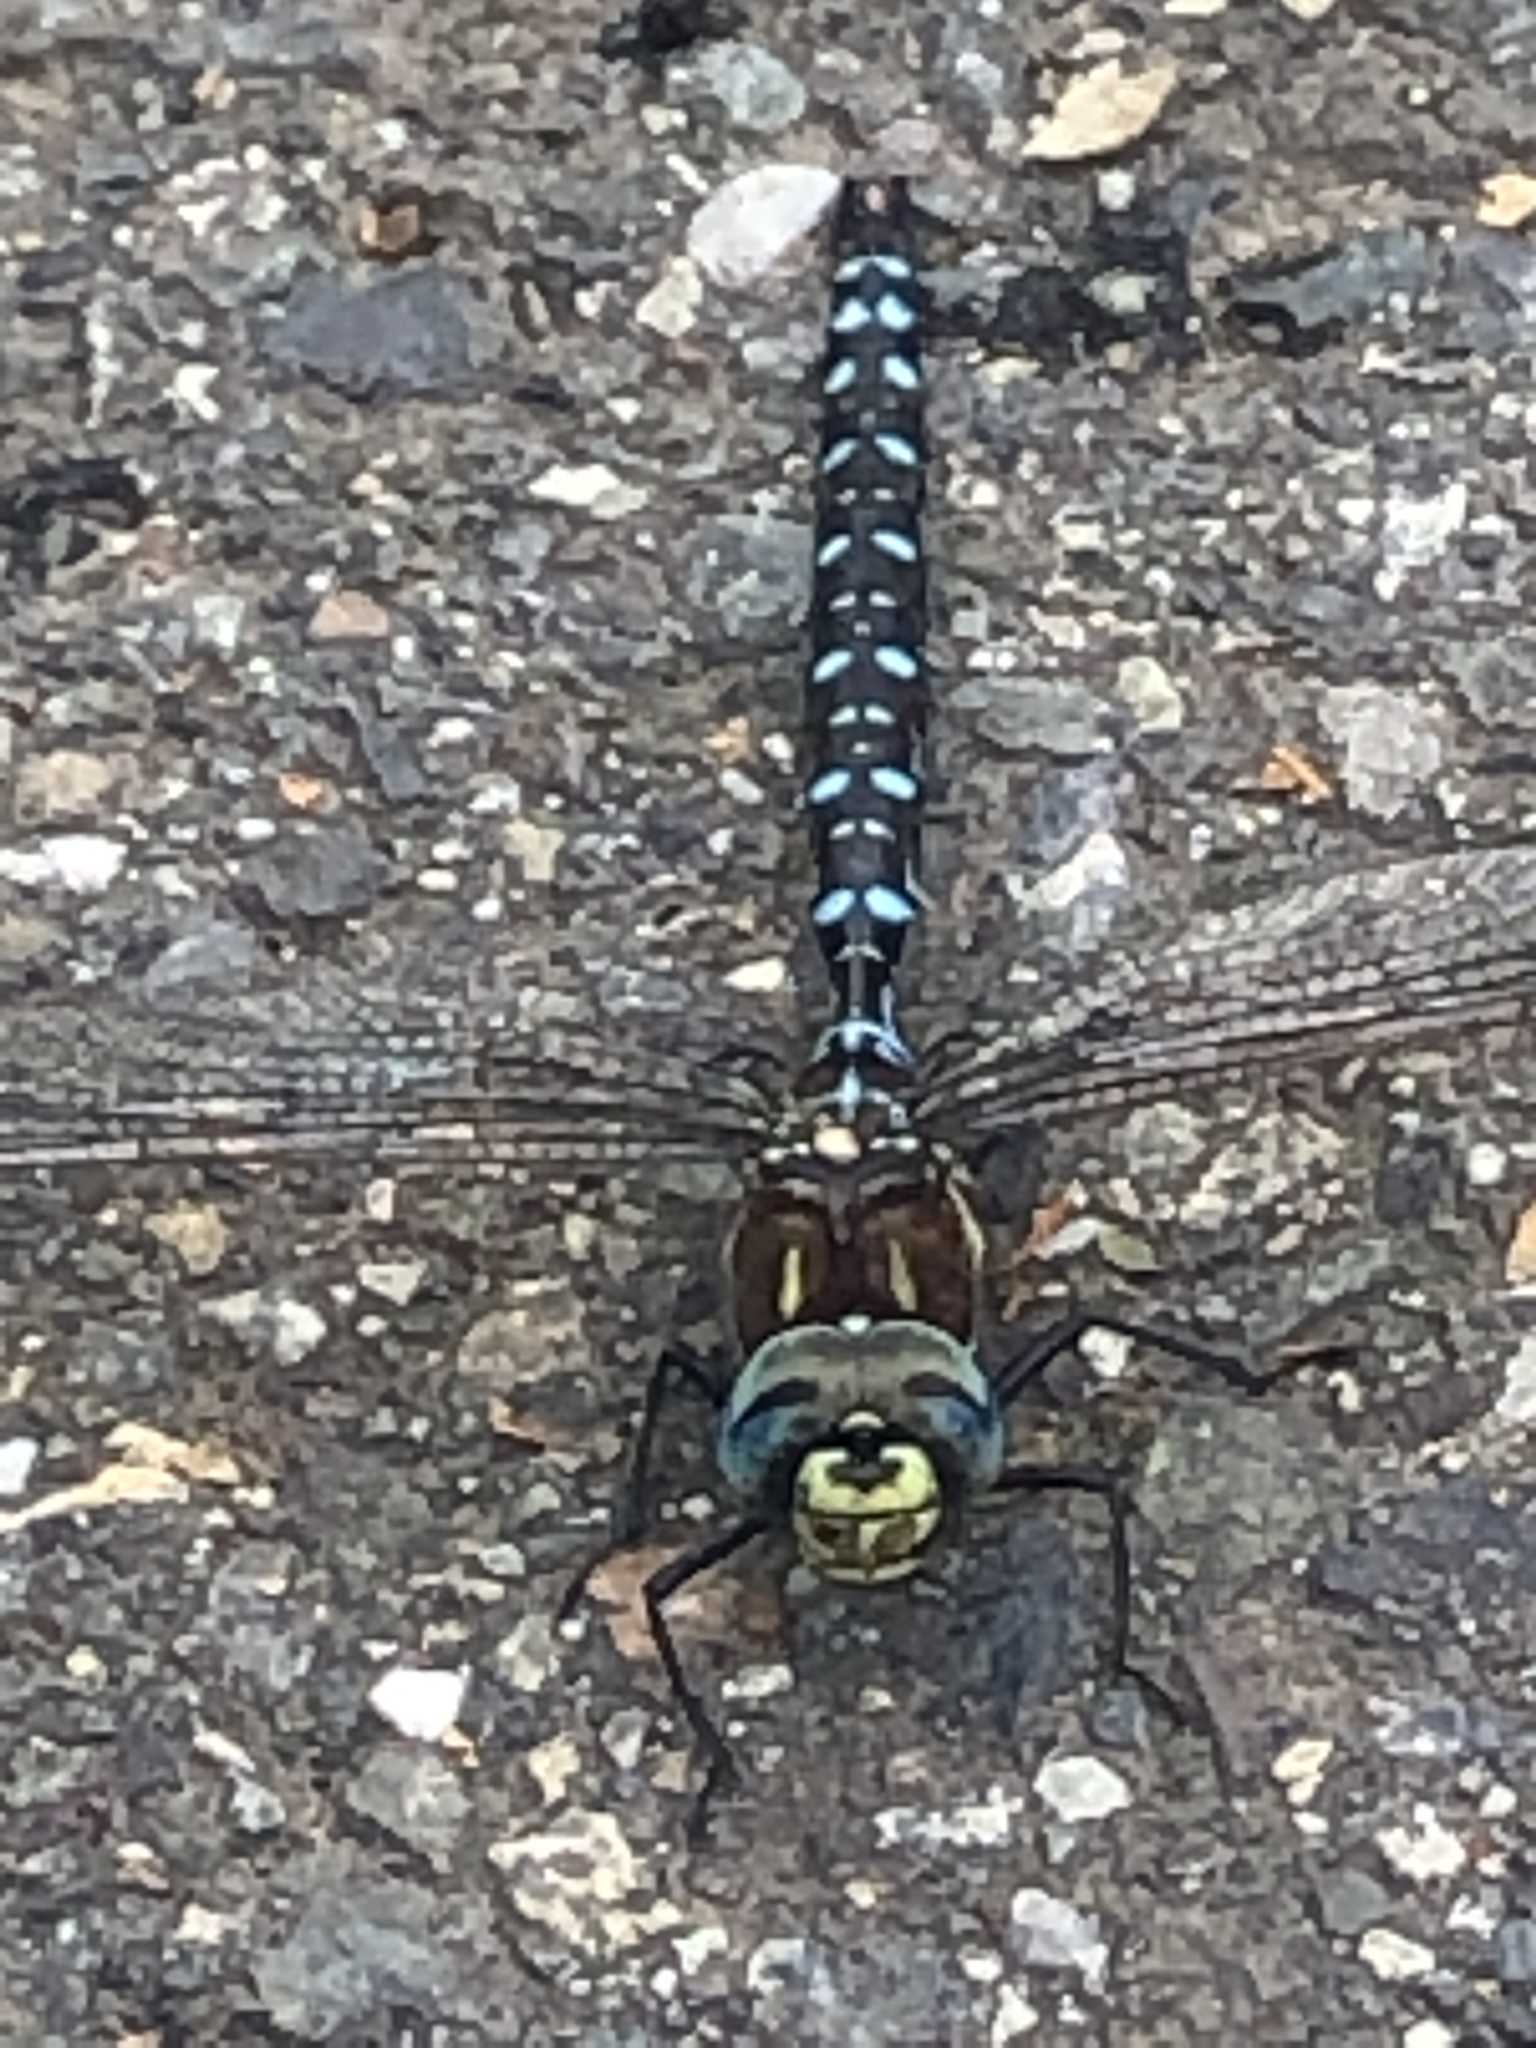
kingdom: Animalia
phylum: Arthropoda
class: Insecta
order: Odonata
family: Aeshnidae
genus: Aeshna
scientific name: Aeshna palmata
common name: Paddle-tailed darner
